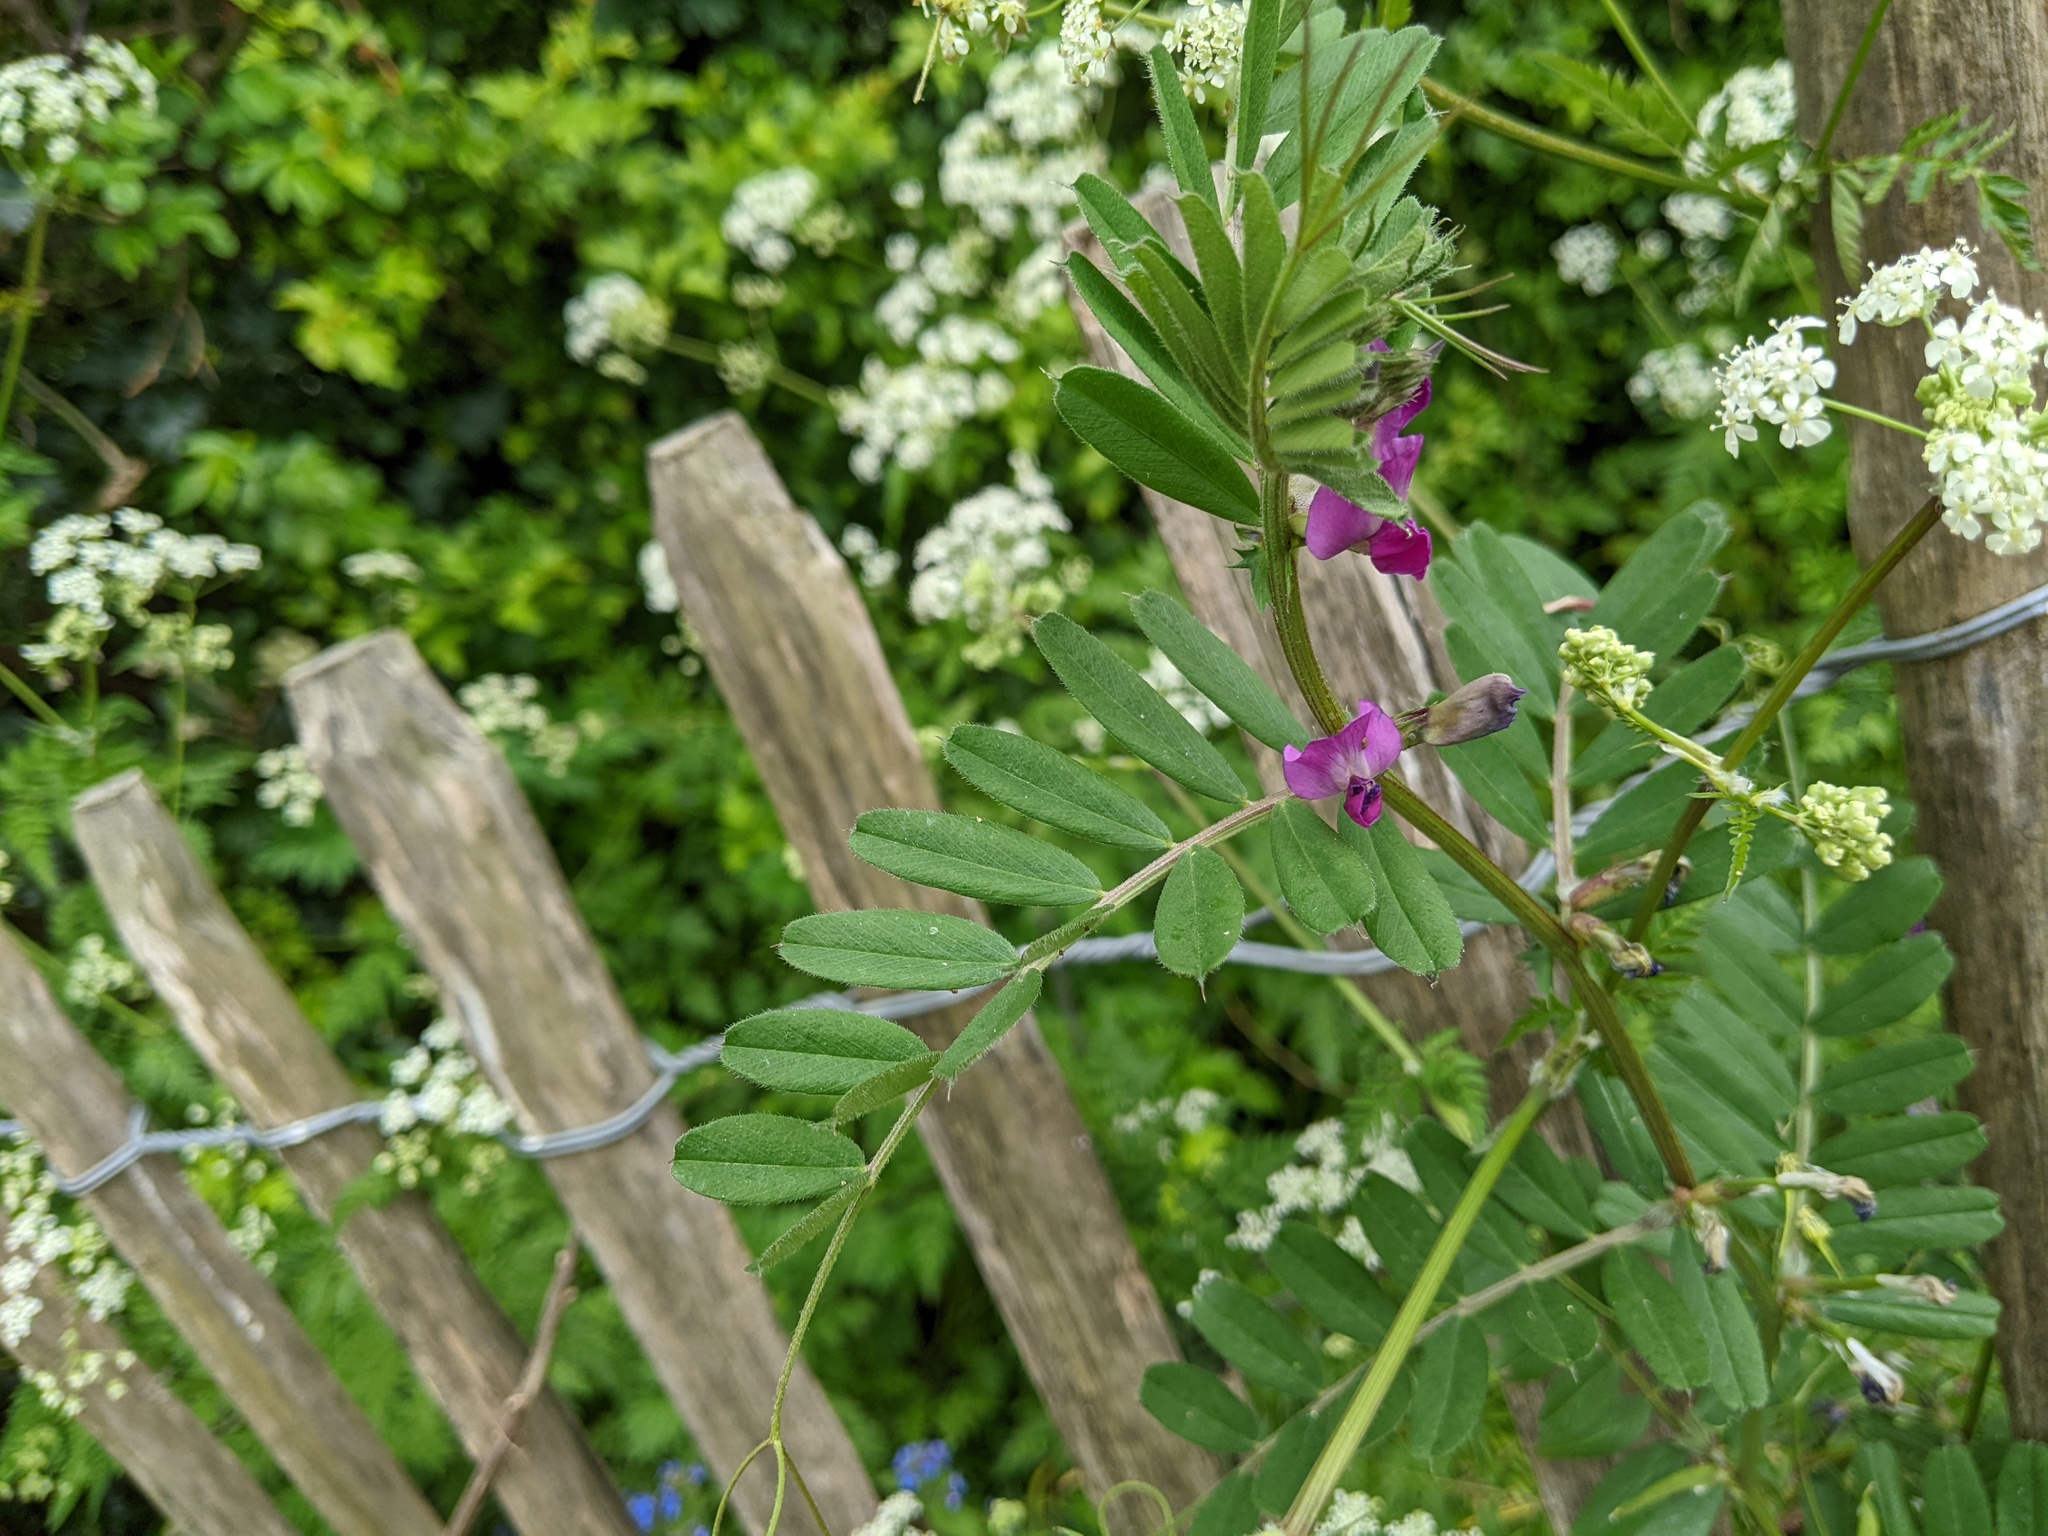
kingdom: Plantae
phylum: Tracheophyta
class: Magnoliopsida
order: Fabales
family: Fabaceae
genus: Vicia
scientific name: Vicia sativa
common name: Garden vetch
